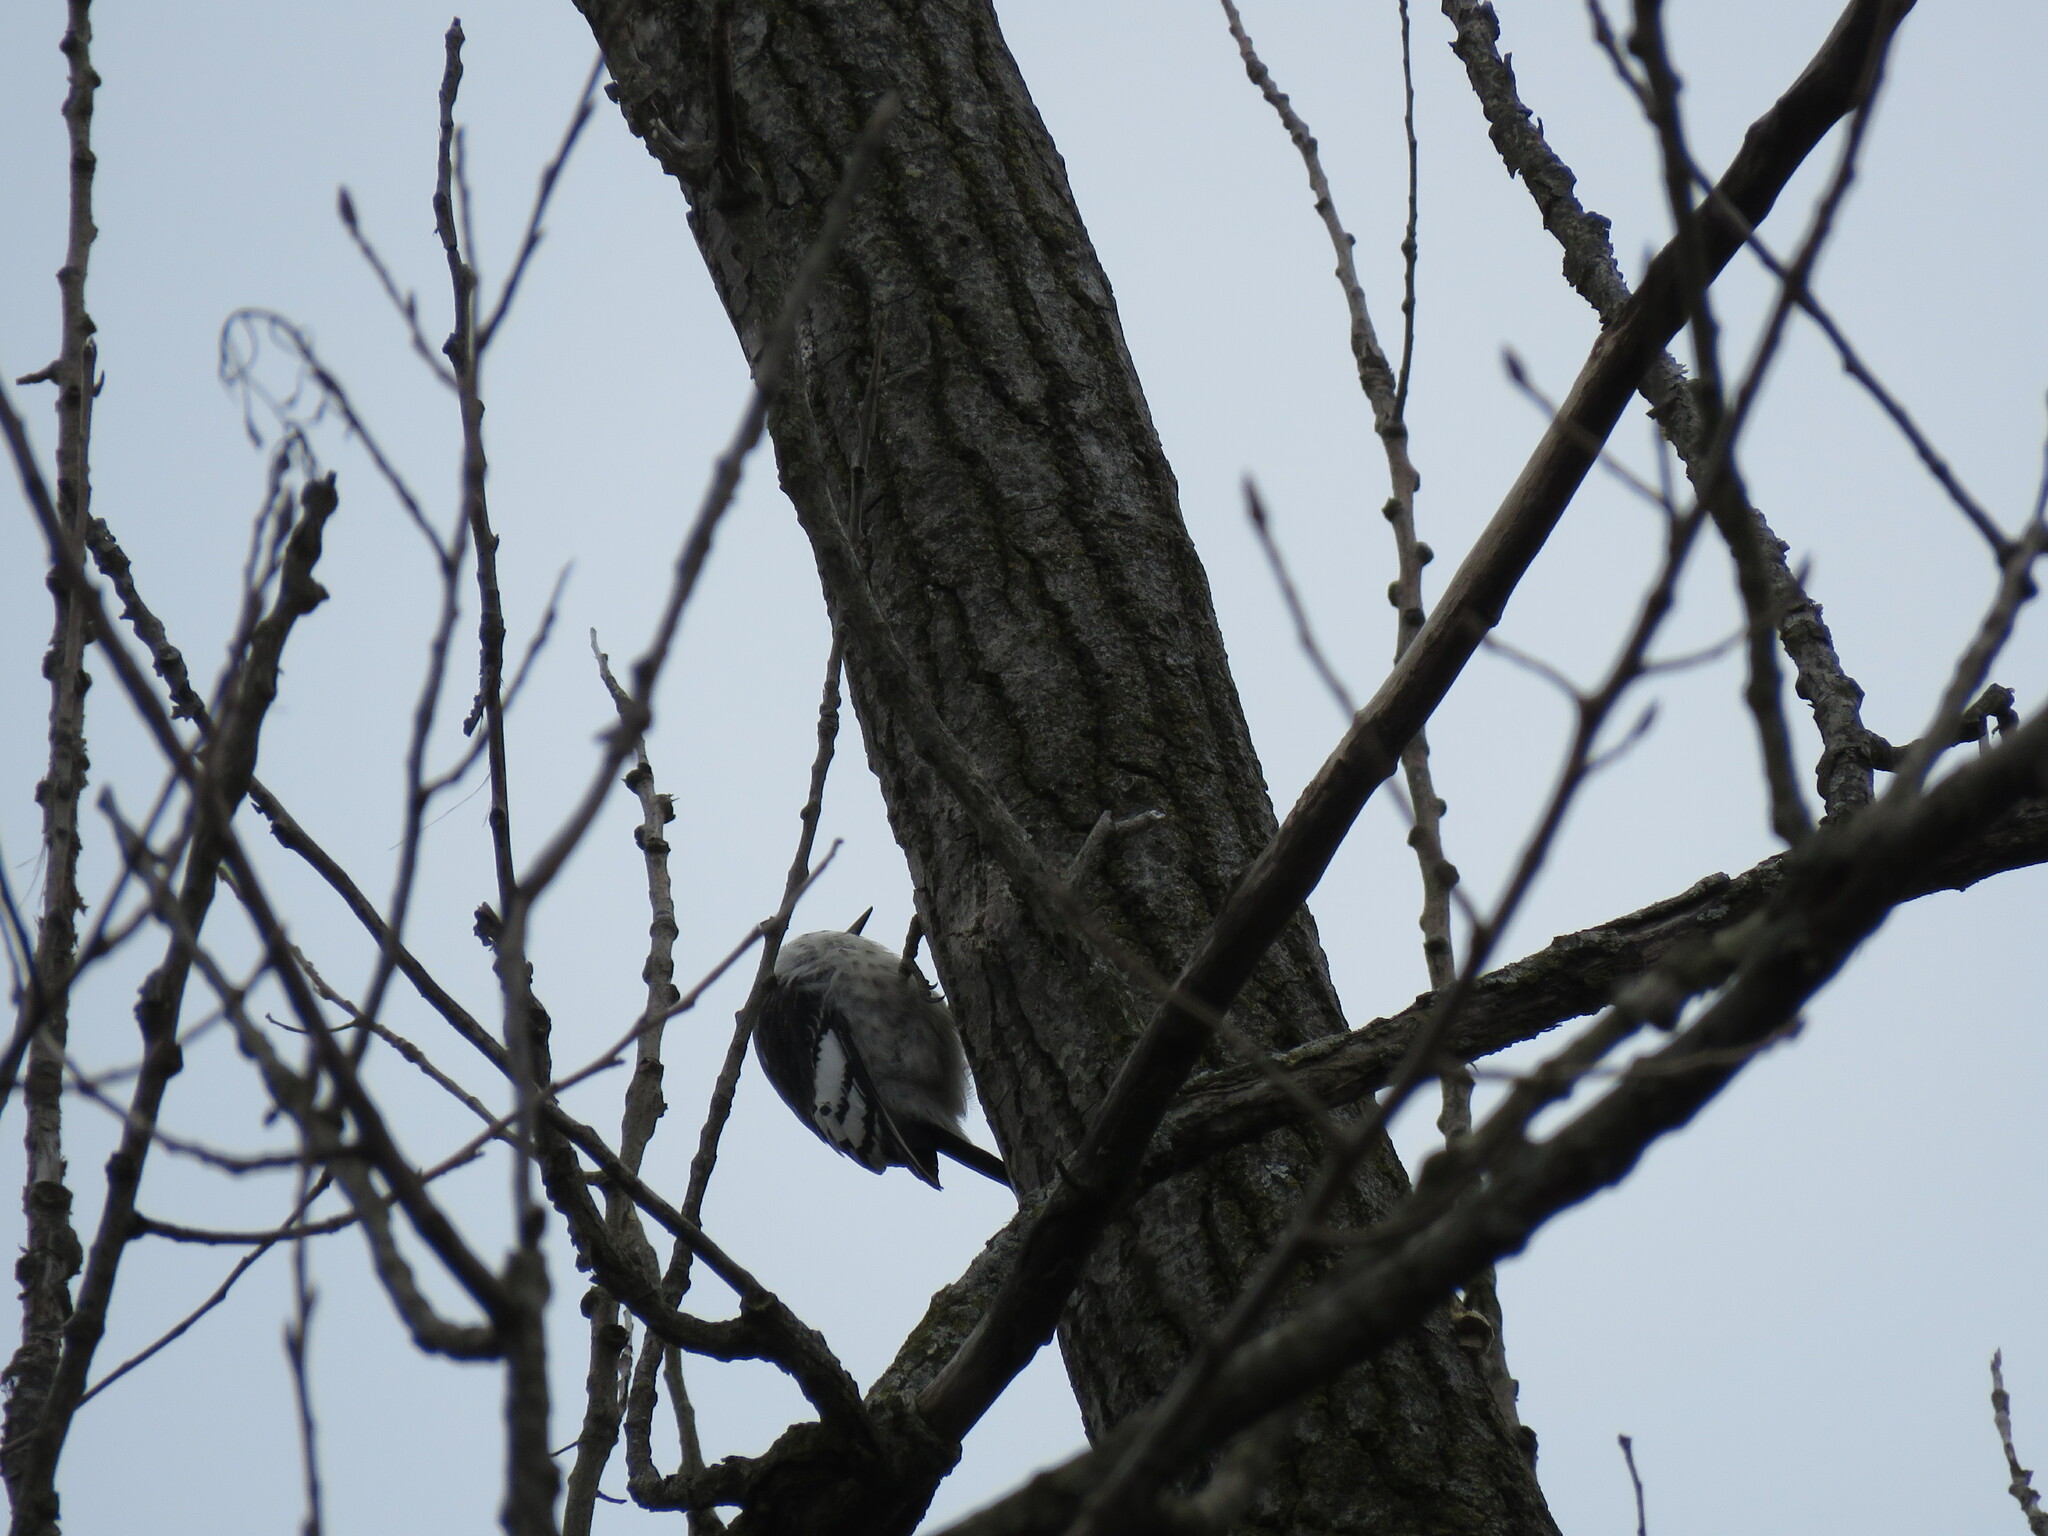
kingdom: Animalia
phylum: Chordata
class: Aves
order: Piciformes
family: Picidae
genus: Melanerpes
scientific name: Melanerpes erythrocephalus
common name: Red-headed woodpecker
